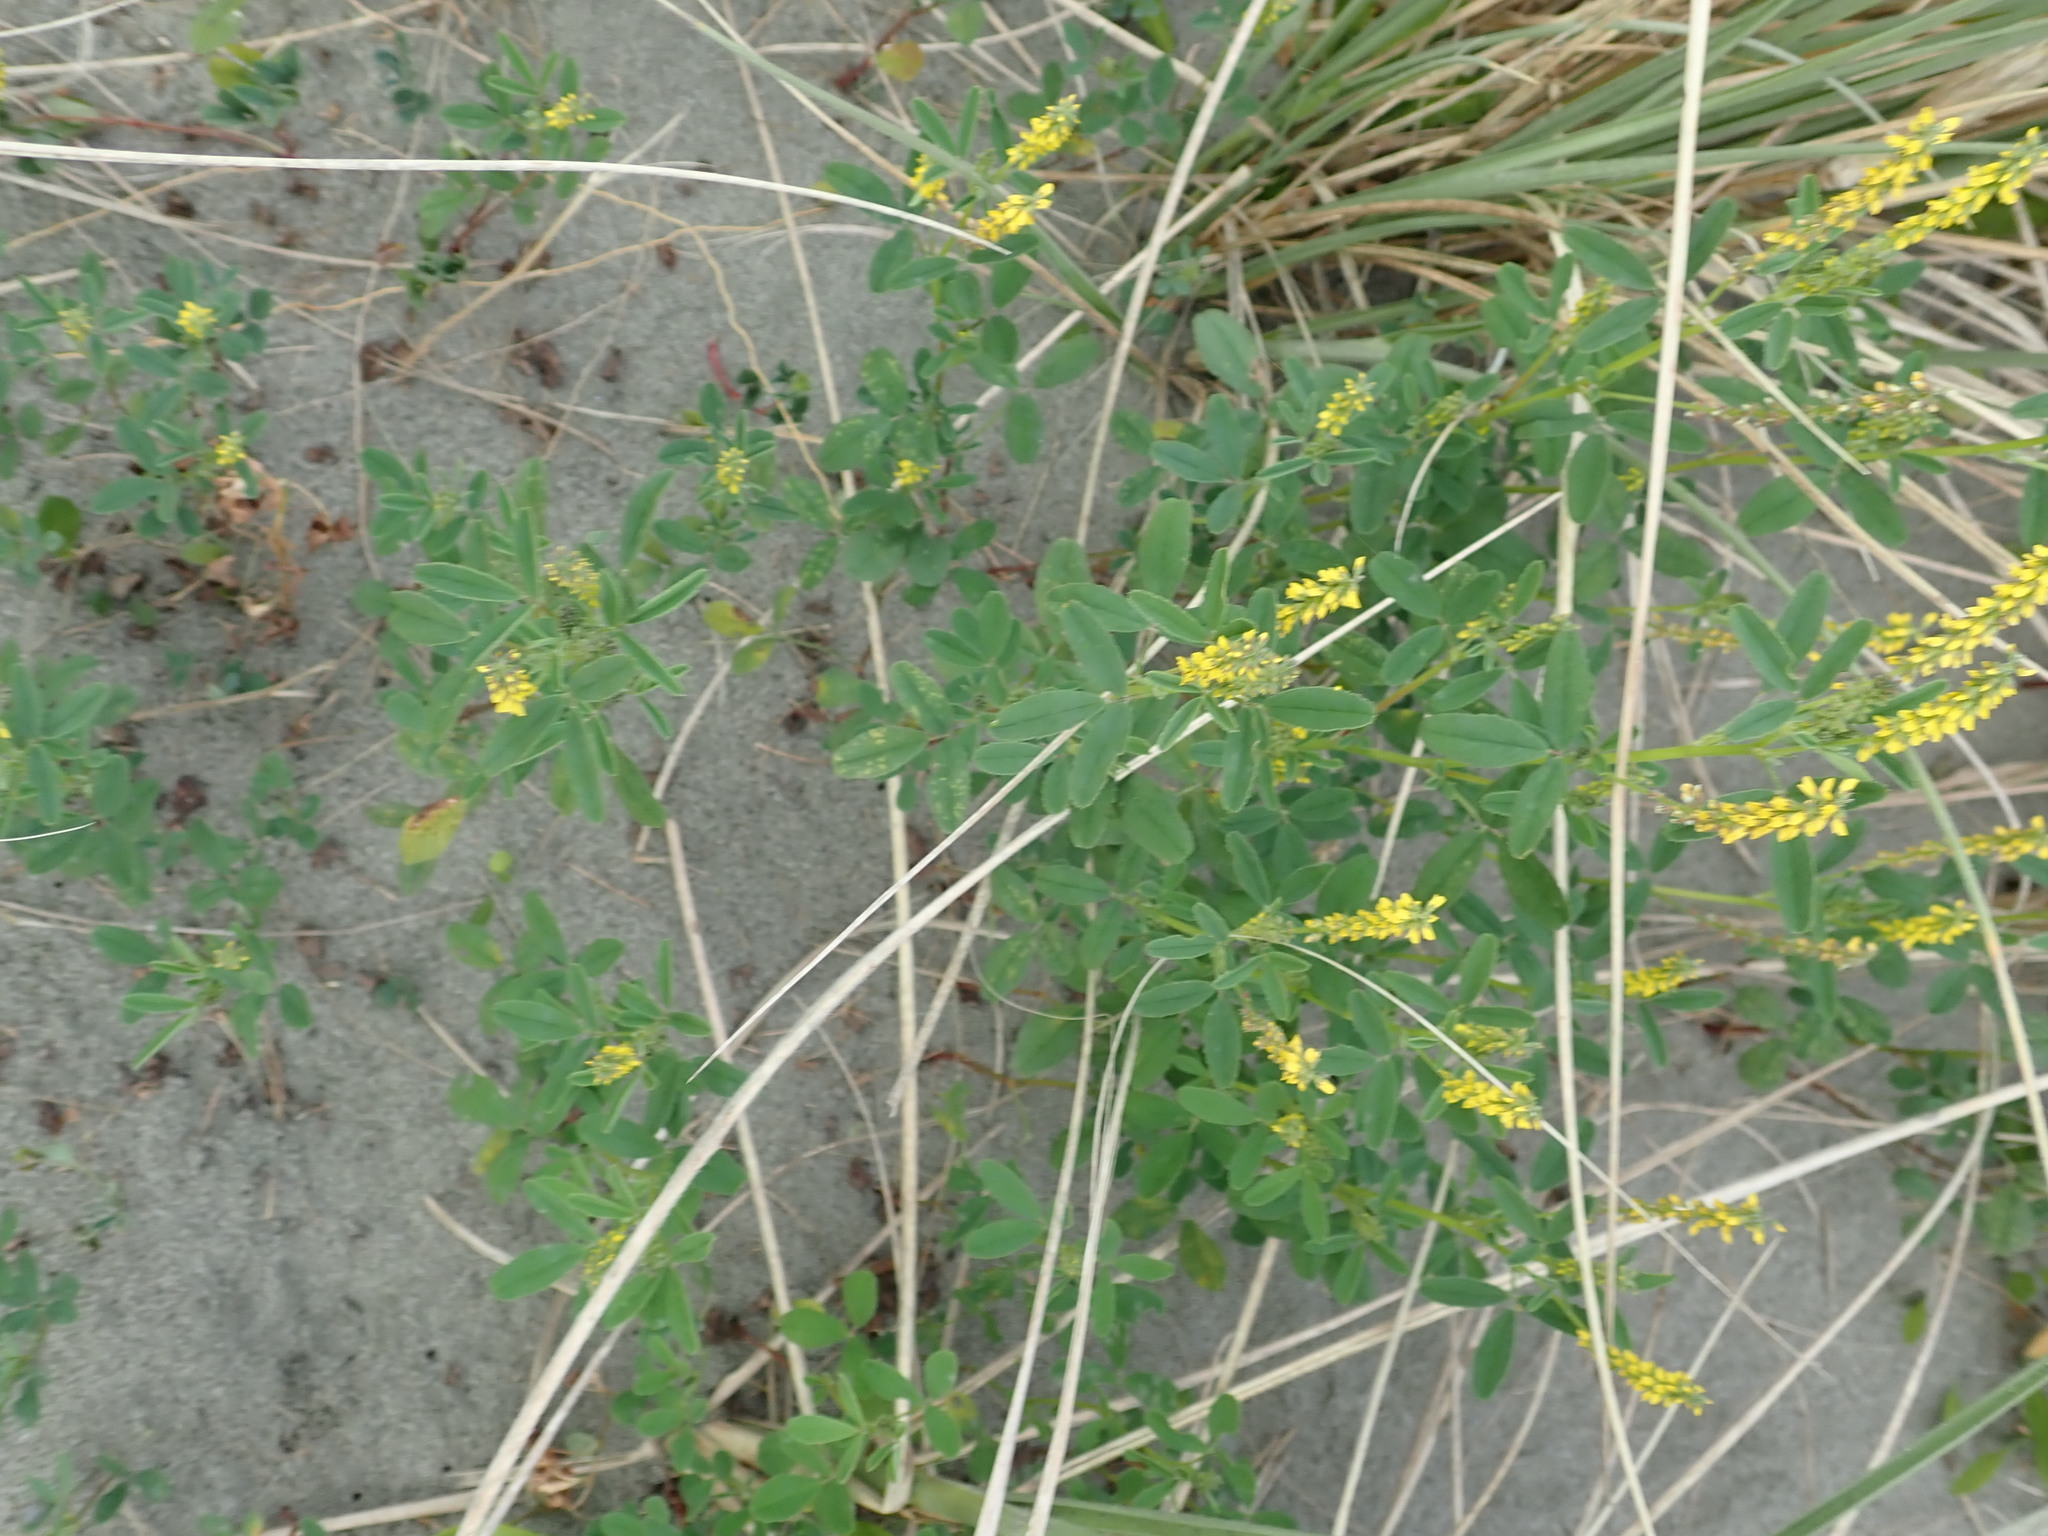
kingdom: Plantae
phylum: Tracheophyta
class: Magnoliopsida
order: Fabales
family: Fabaceae
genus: Melilotus
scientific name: Melilotus indicus
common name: Small melilot
